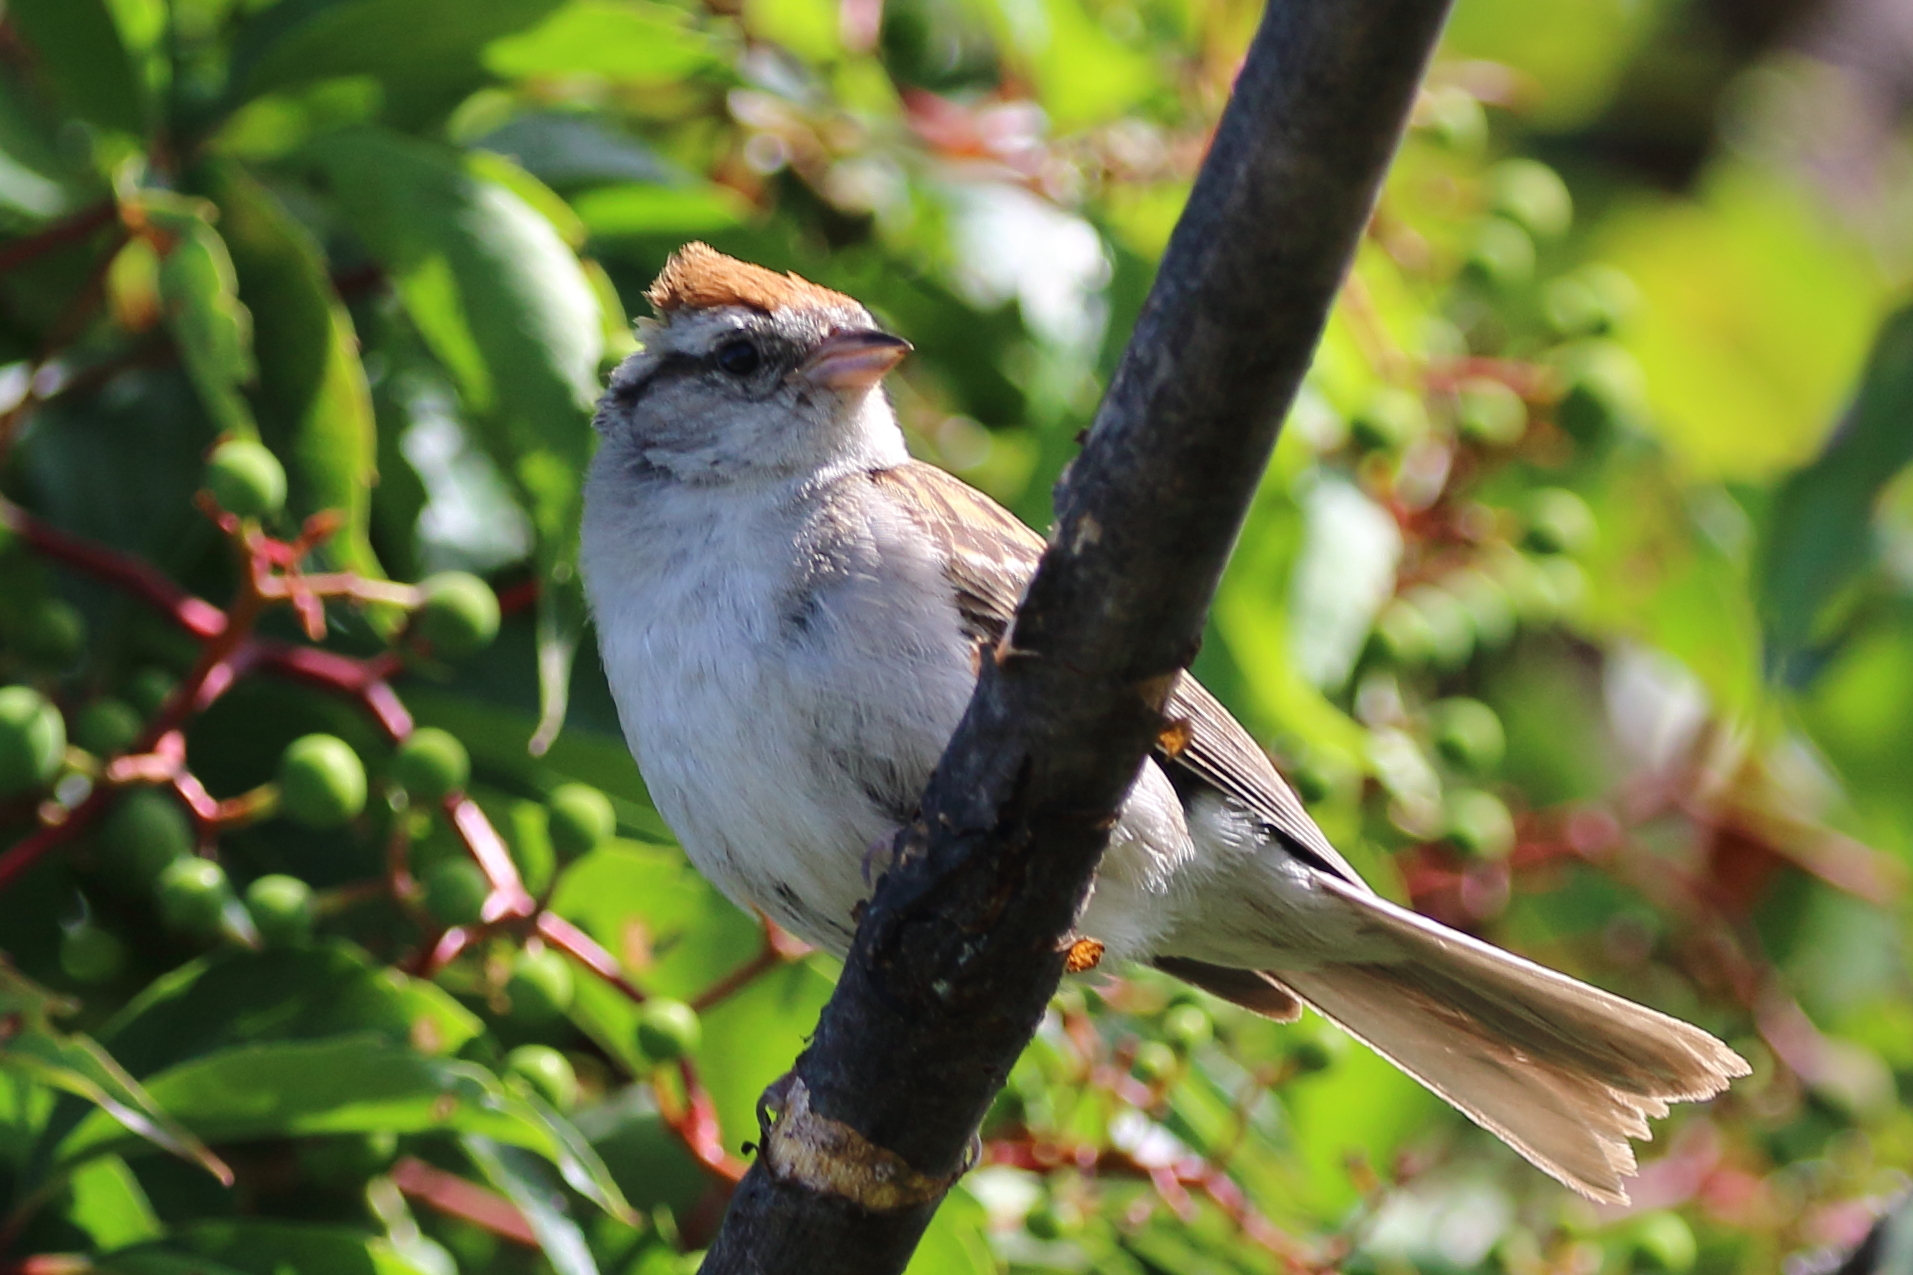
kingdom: Animalia
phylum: Chordata
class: Aves
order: Passeriformes
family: Passerellidae
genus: Spizella
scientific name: Spizella passerina
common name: Chipping sparrow
